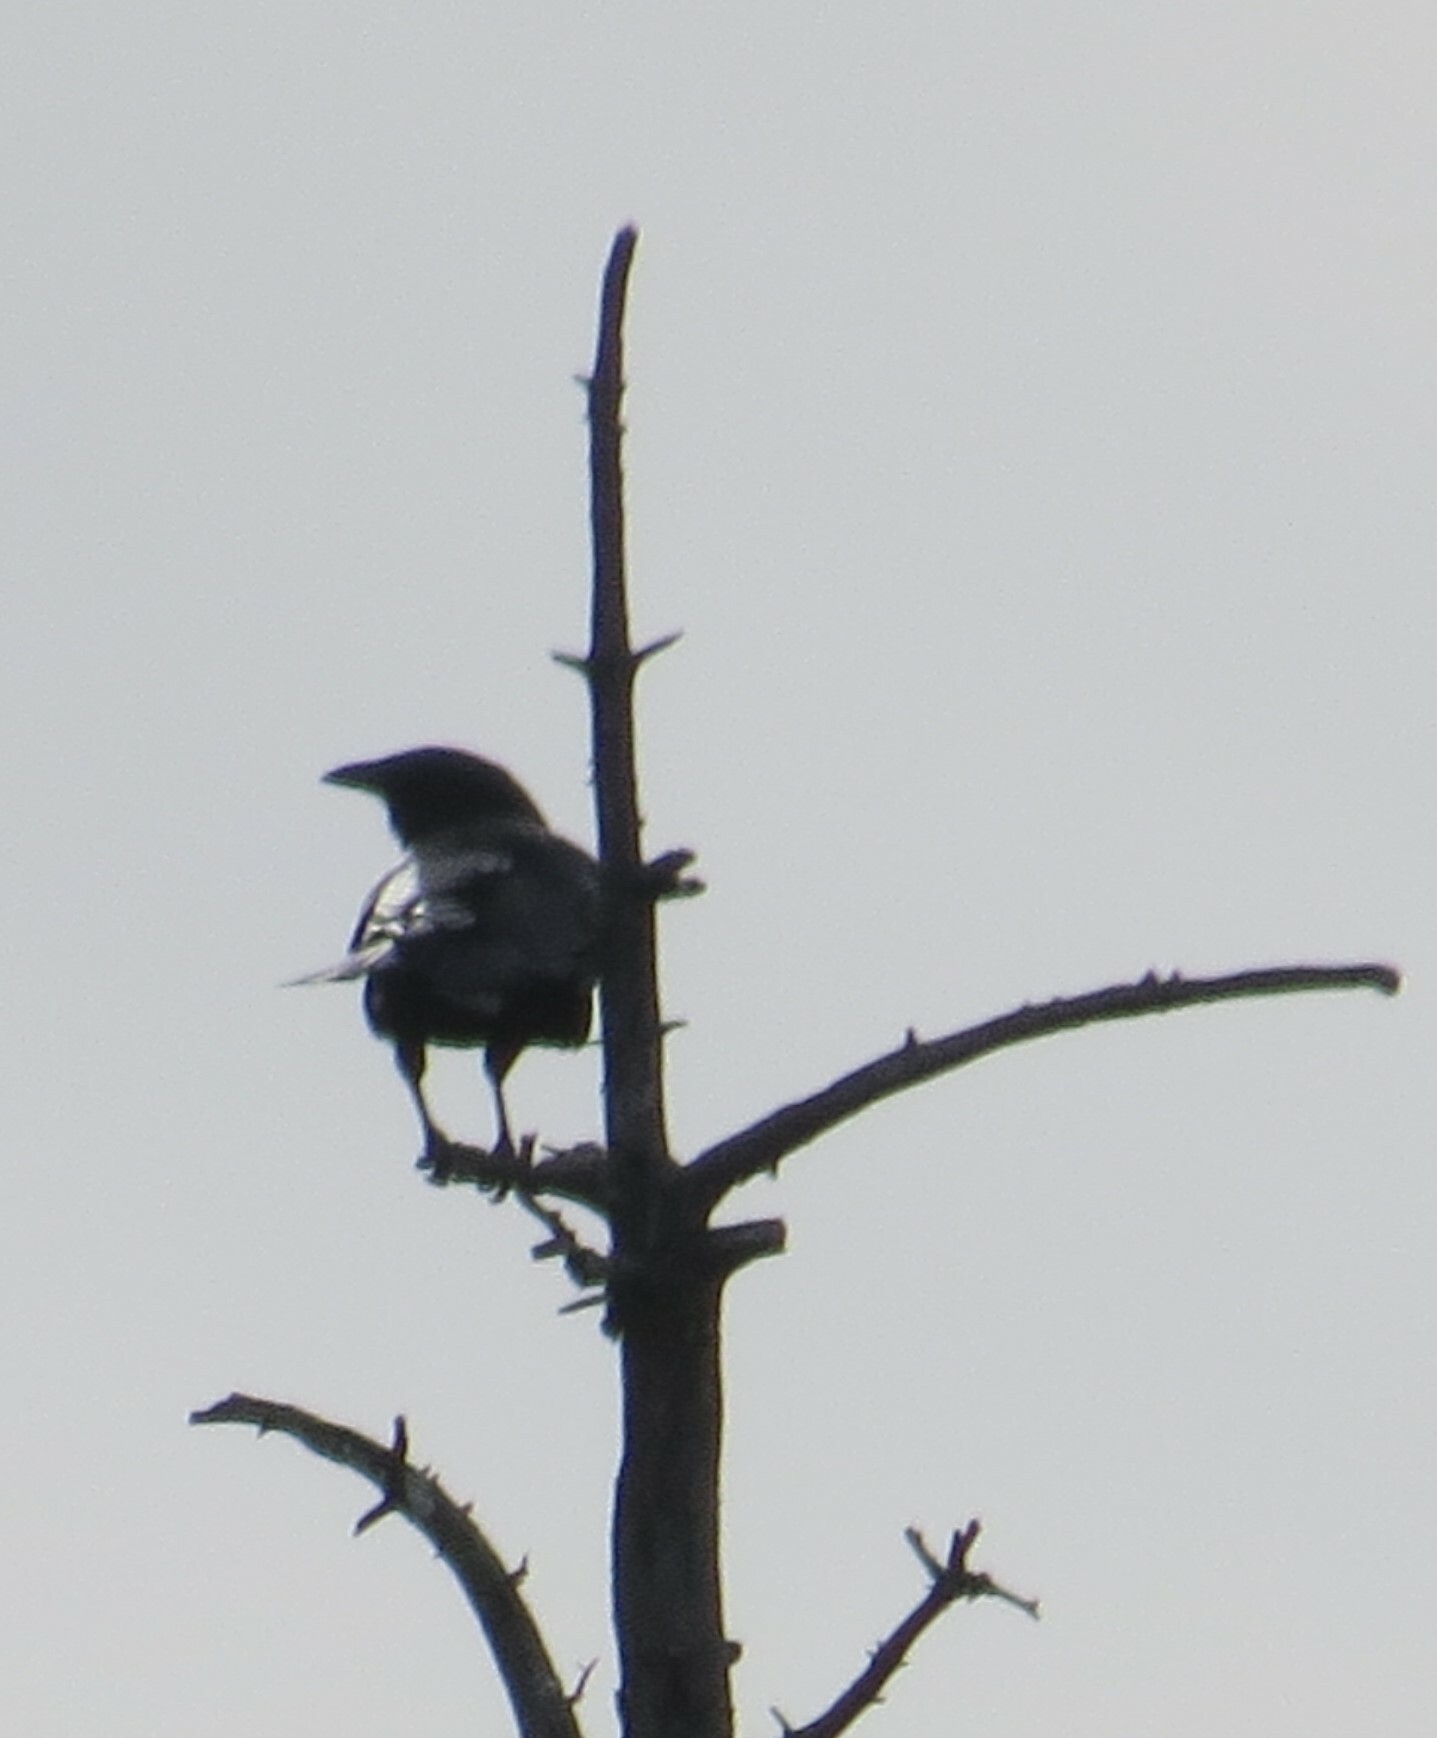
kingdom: Animalia
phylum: Chordata
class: Aves
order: Passeriformes
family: Corvidae
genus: Corvus
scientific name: Corvus brachyrhynchos
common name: American crow
